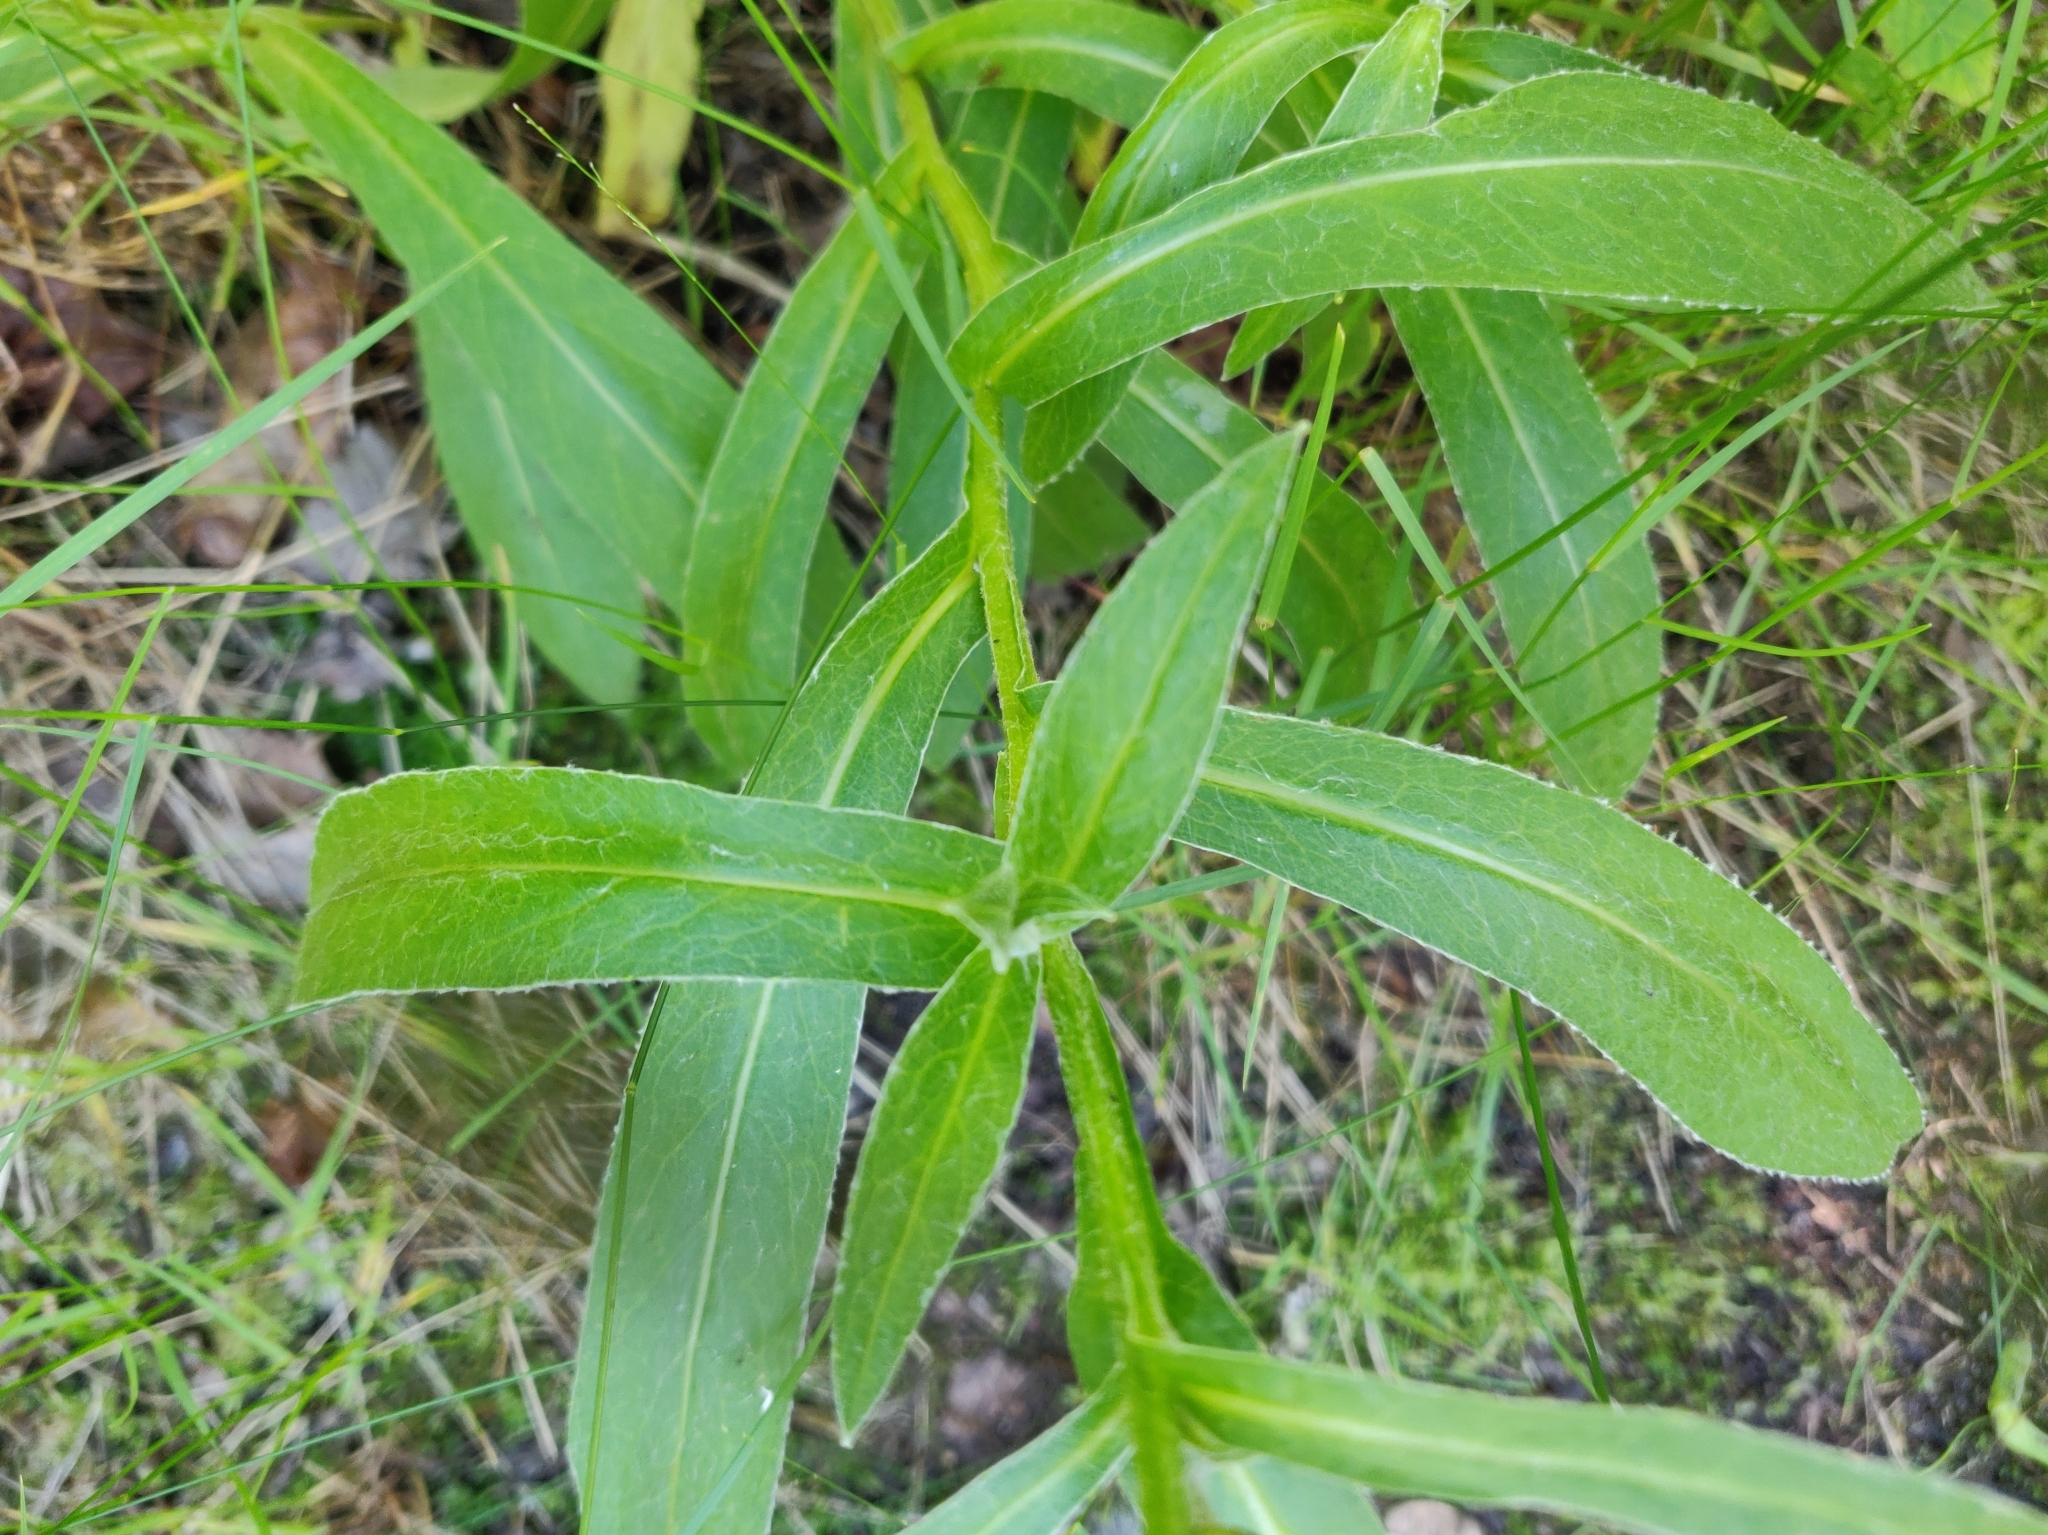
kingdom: Plantae
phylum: Tracheophyta
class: Magnoliopsida
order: Asterales
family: Asteraceae
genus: Centaurea
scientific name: Centaurea montana
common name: Perennial cornflower
